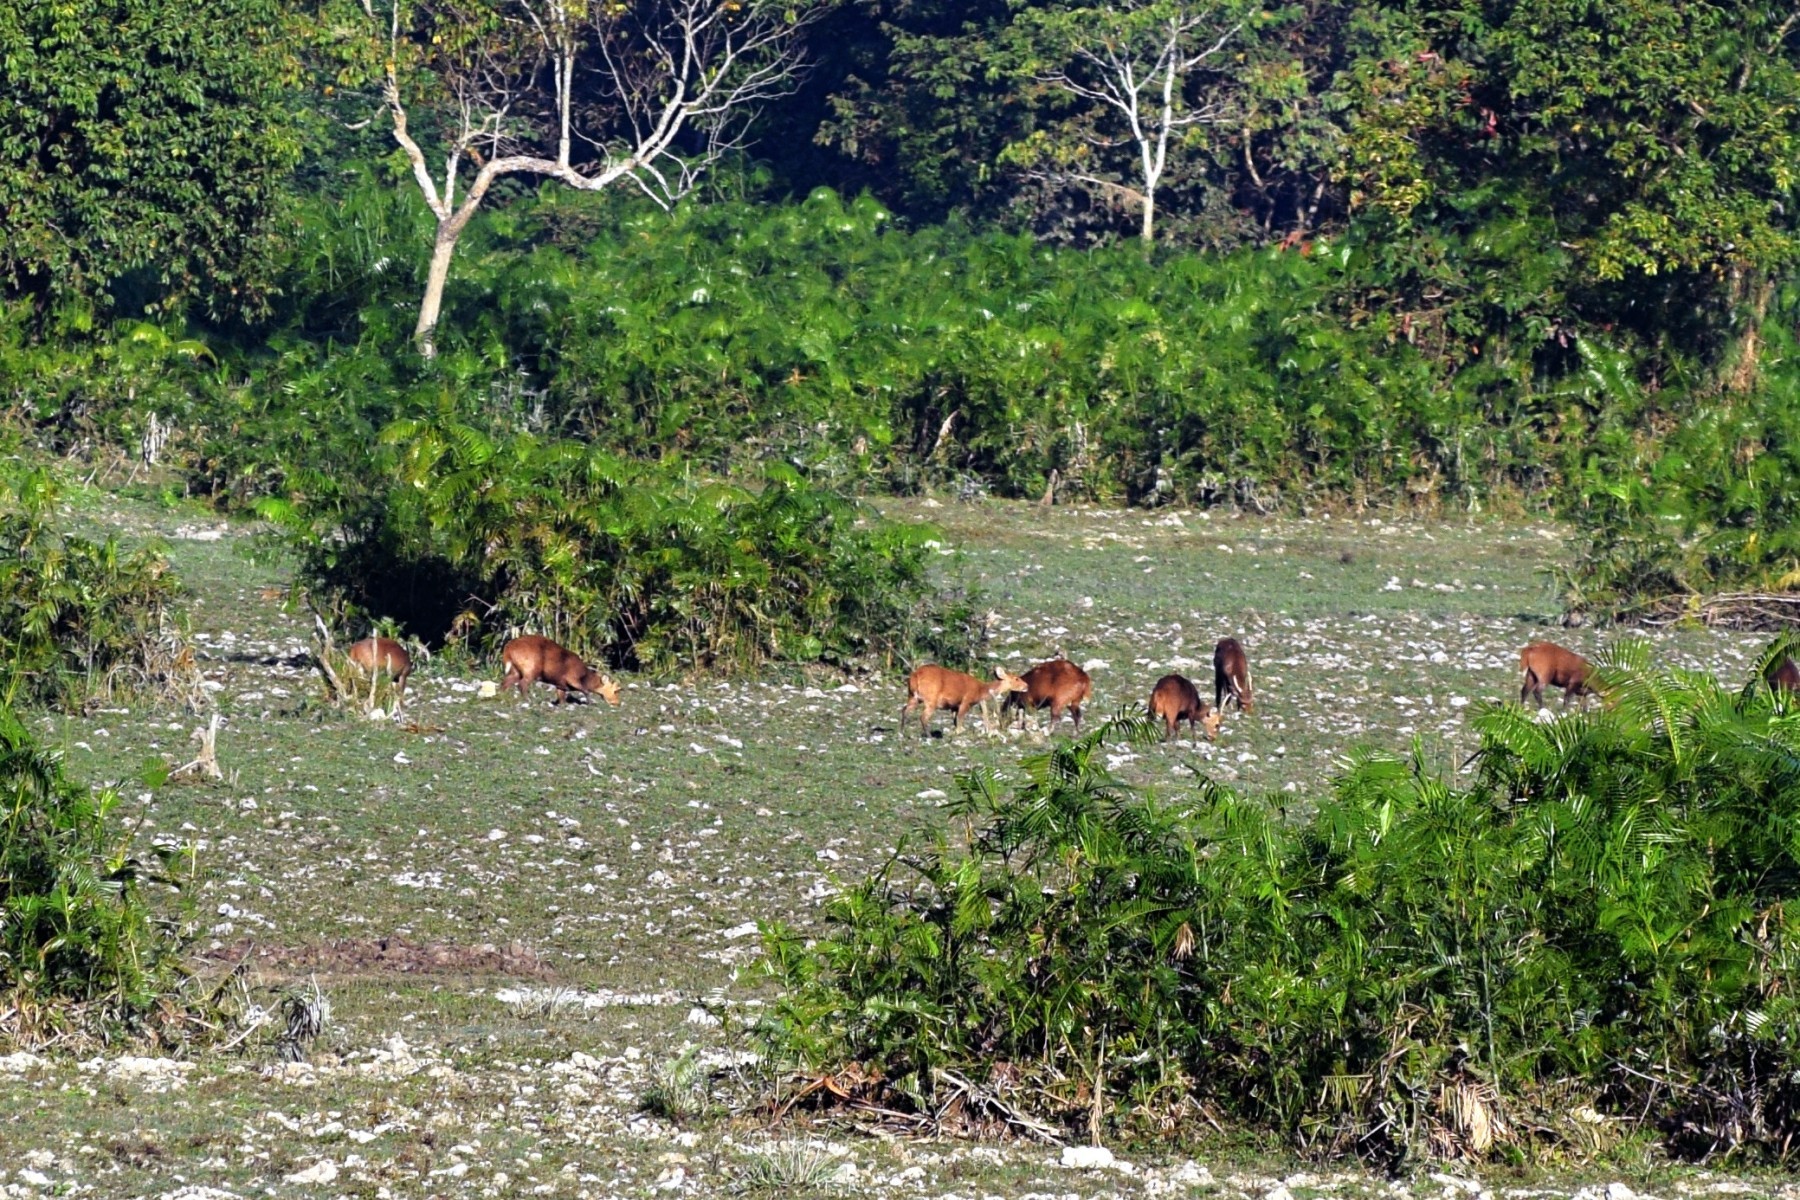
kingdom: Animalia
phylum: Chordata
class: Mammalia
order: Artiodactyla
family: Cervidae
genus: Axis
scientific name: Axis porcinus
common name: Hog deer
